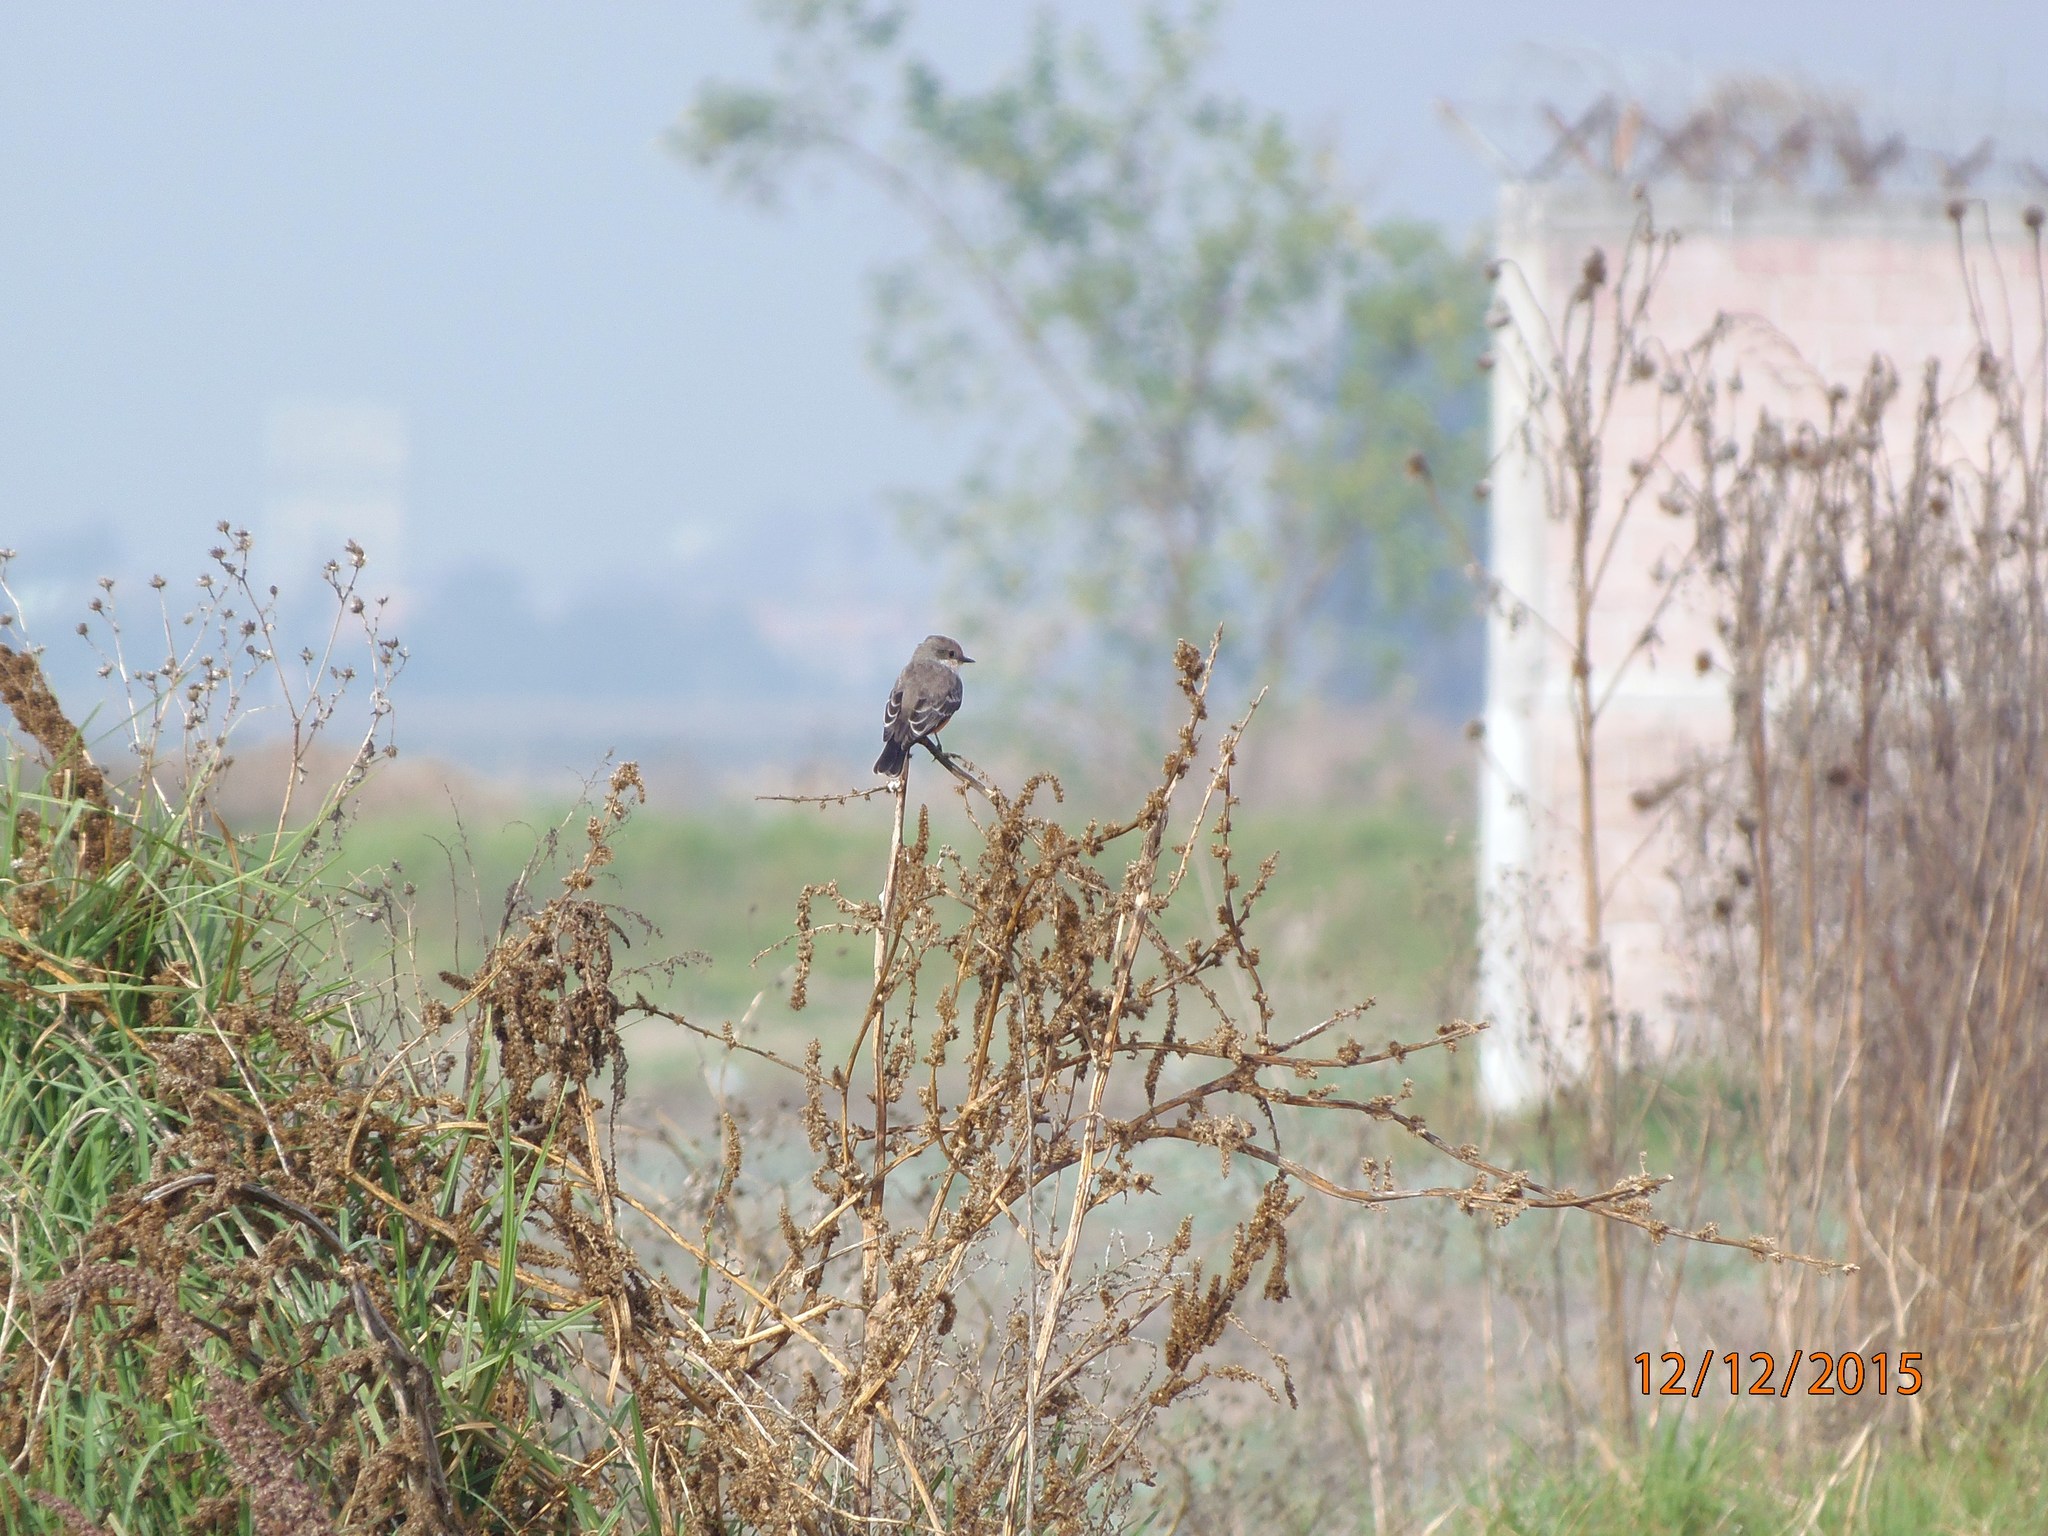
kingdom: Animalia
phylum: Chordata
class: Aves
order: Passeriformes
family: Tyrannidae
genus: Pyrocephalus
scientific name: Pyrocephalus rubinus
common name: Vermilion flycatcher
